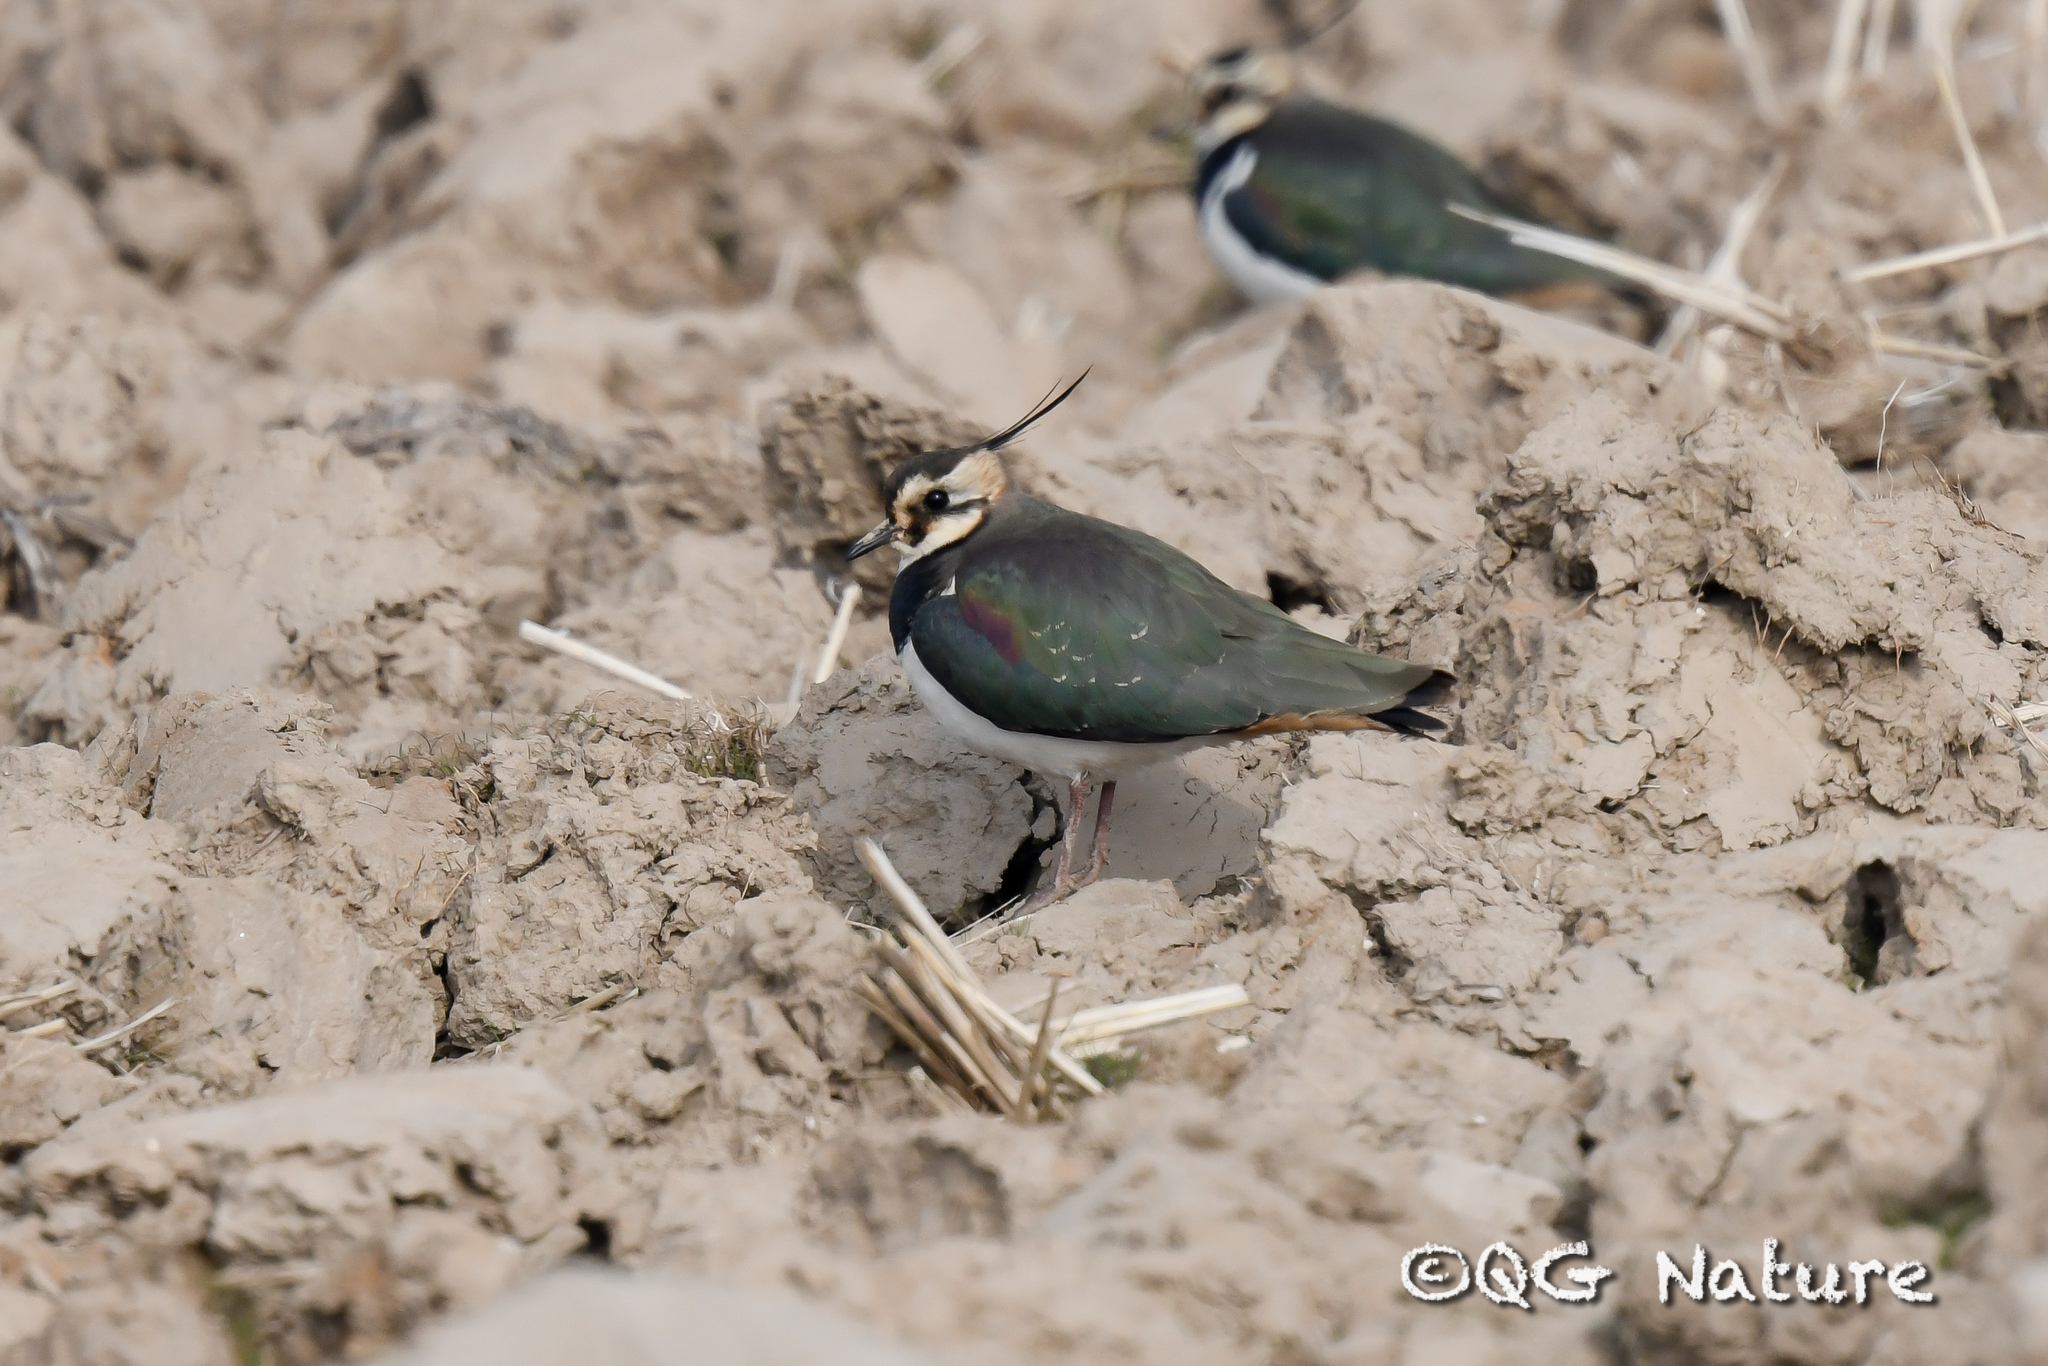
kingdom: Animalia
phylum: Chordata
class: Aves
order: Charadriiformes
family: Charadriidae
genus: Vanellus
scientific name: Vanellus vanellus
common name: Northern lapwing
